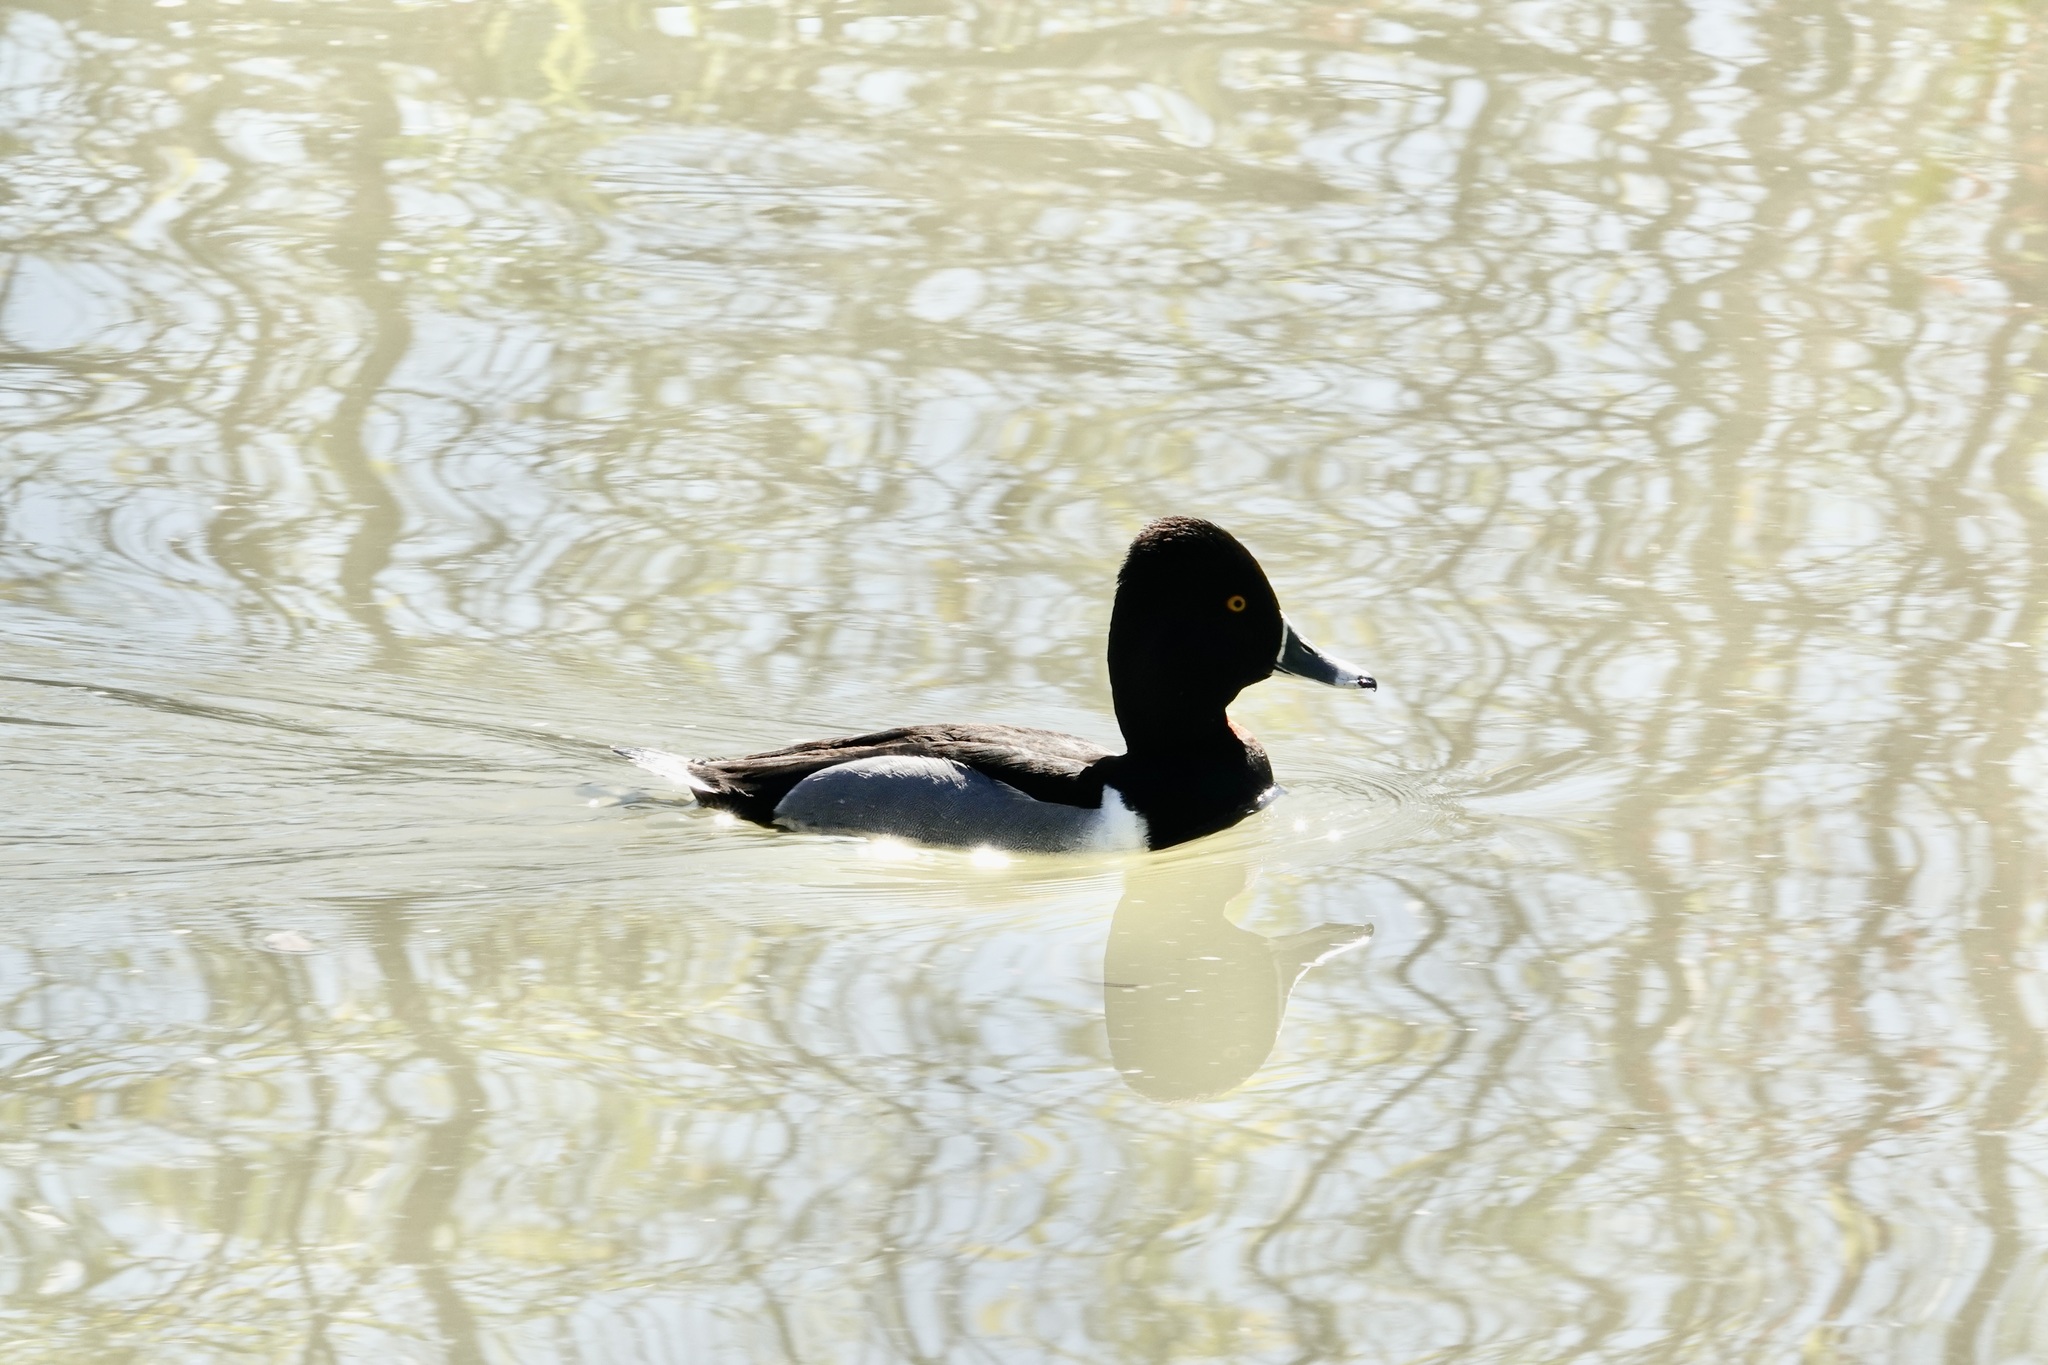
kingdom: Animalia
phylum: Chordata
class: Aves
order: Anseriformes
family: Anatidae
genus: Aythya
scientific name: Aythya collaris
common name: Ring-necked duck
